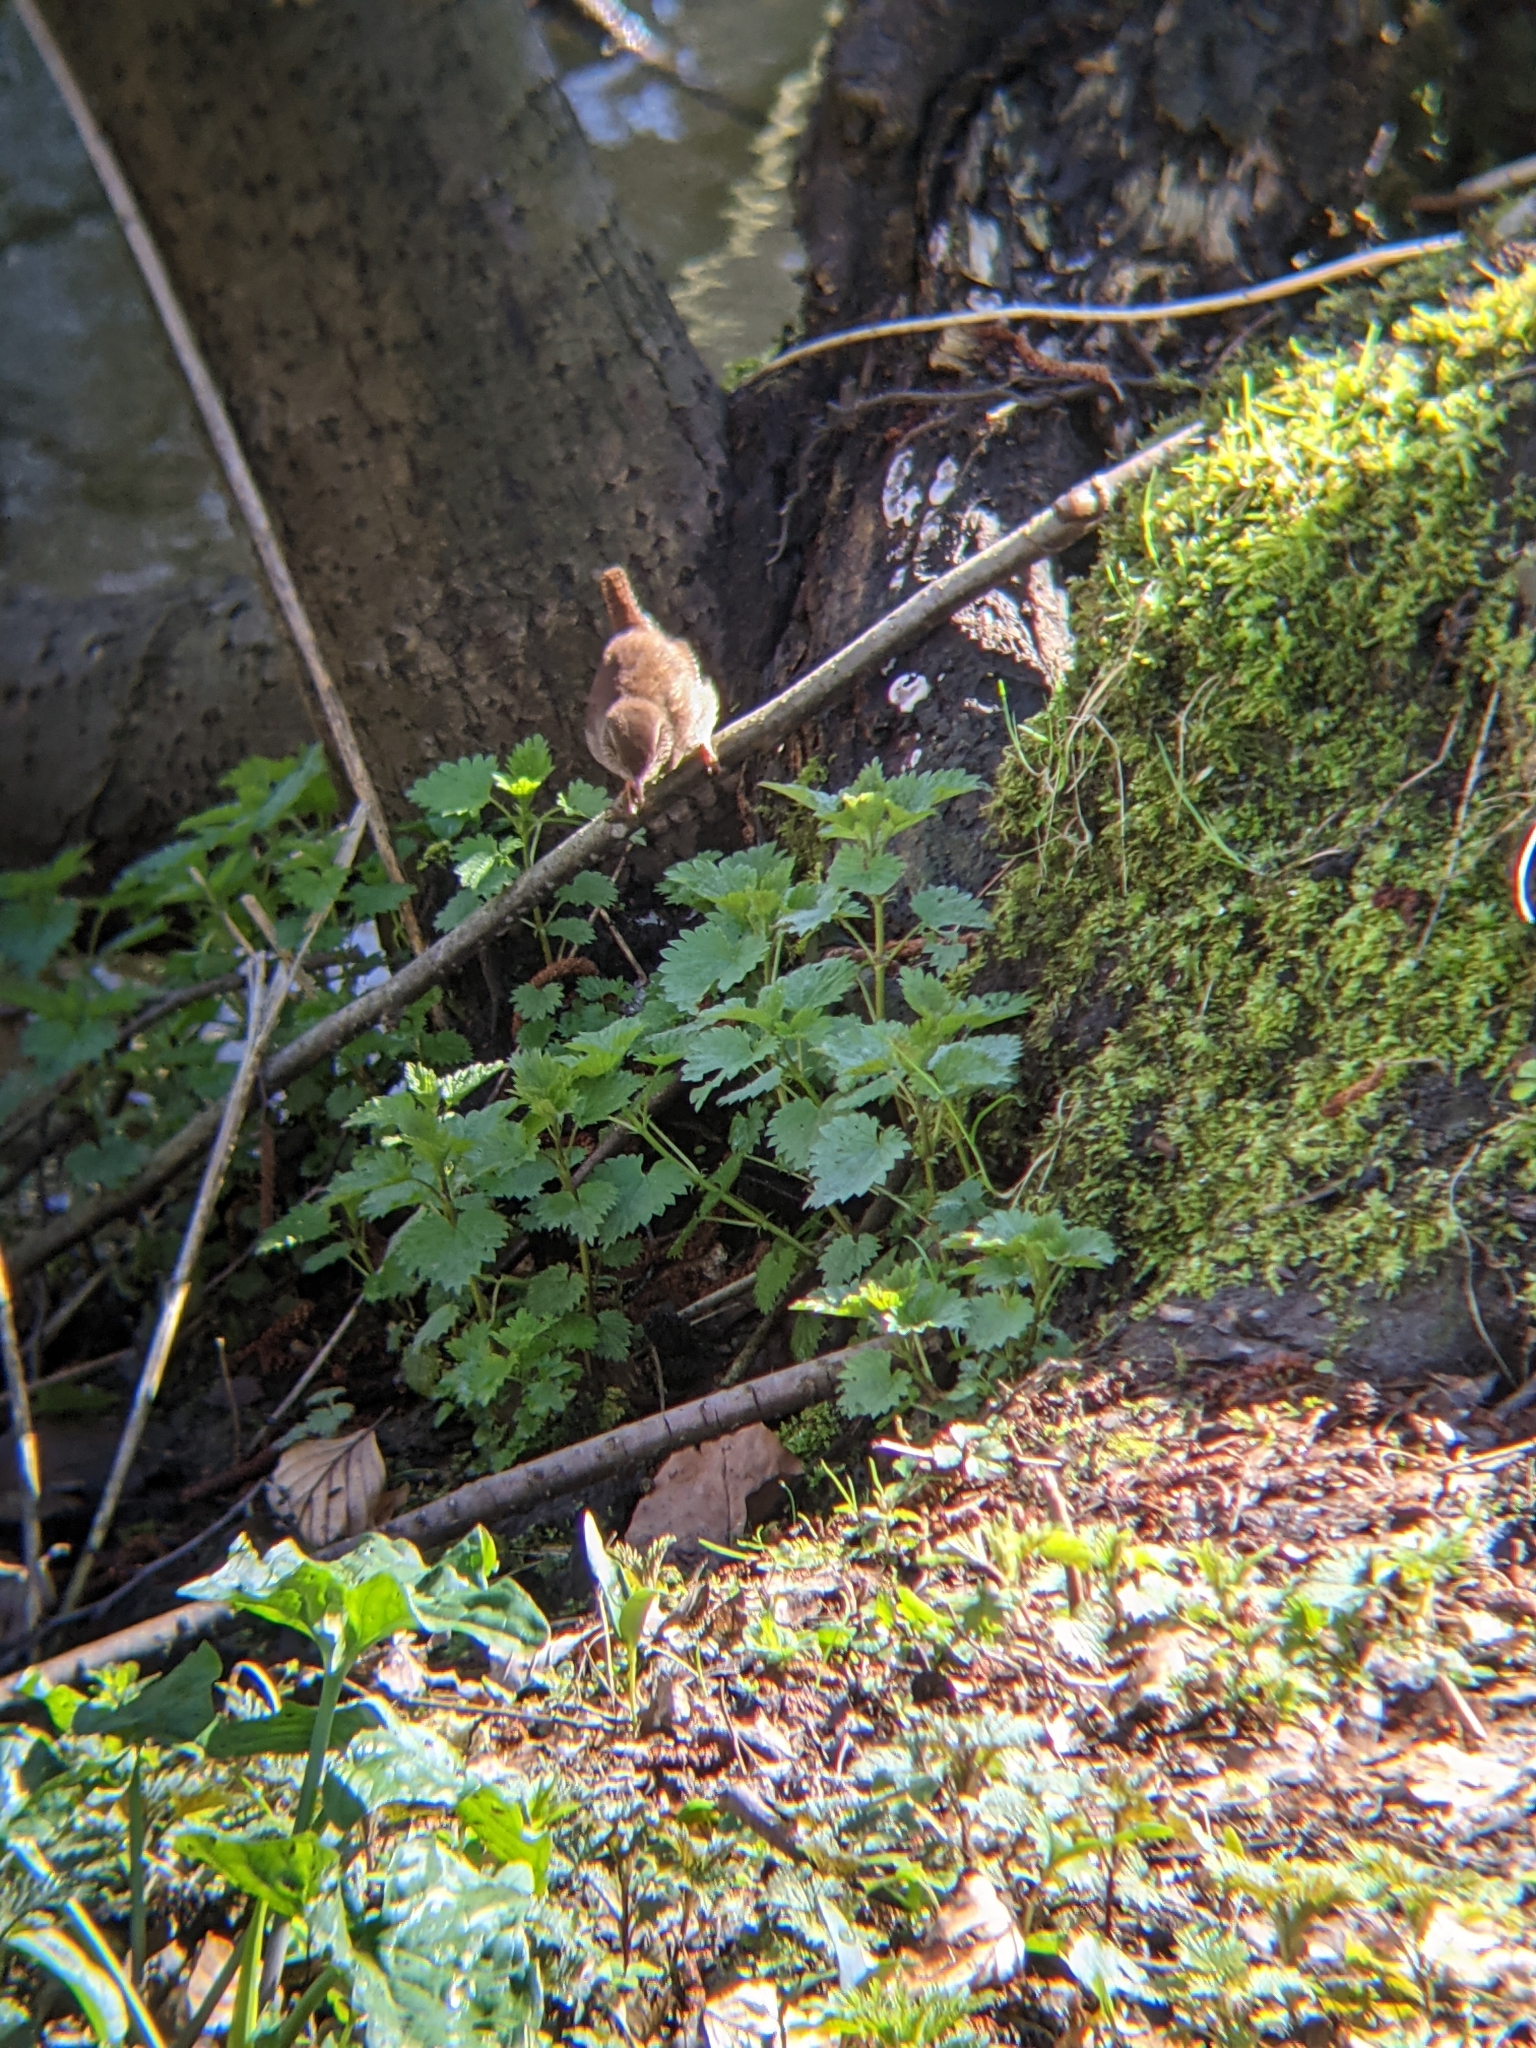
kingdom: Animalia
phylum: Chordata
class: Aves
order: Passeriformes
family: Troglodytidae
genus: Troglodytes
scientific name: Troglodytes troglodytes
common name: Eurasian wren
